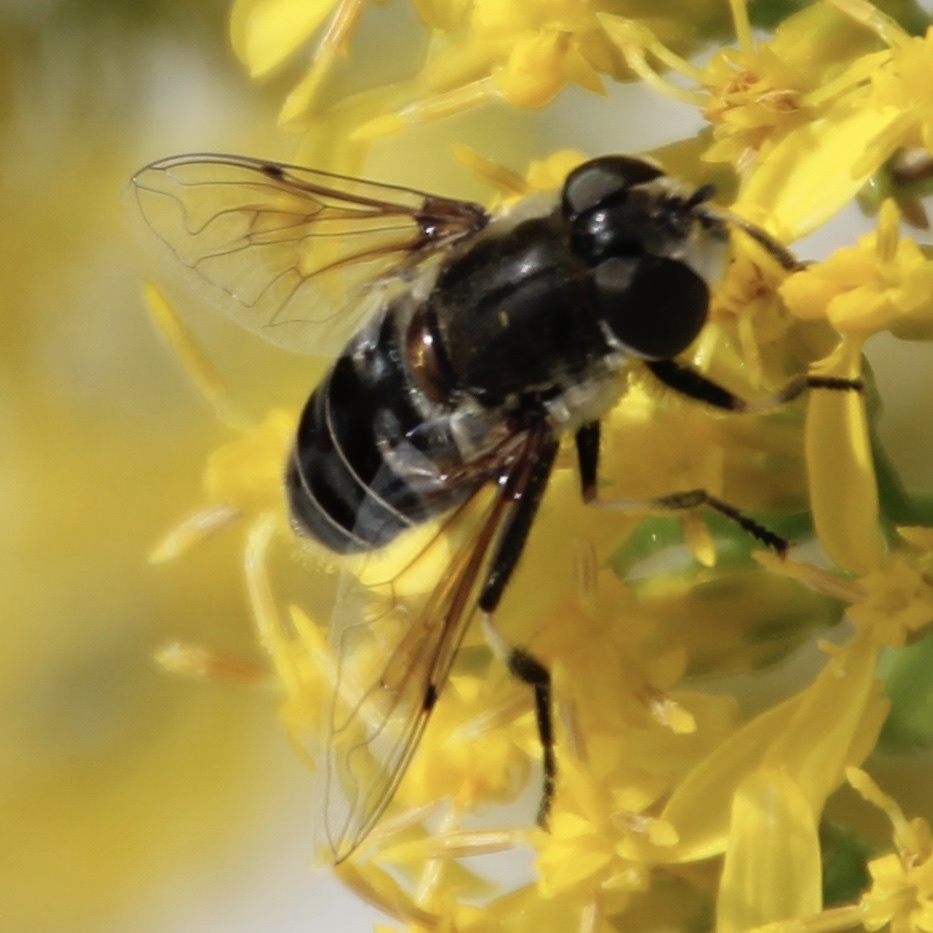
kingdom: Animalia
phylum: Arthropoda
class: Insecta
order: Diptera
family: Syrphidae
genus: Eristalis
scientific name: Eristalis dimidiata
